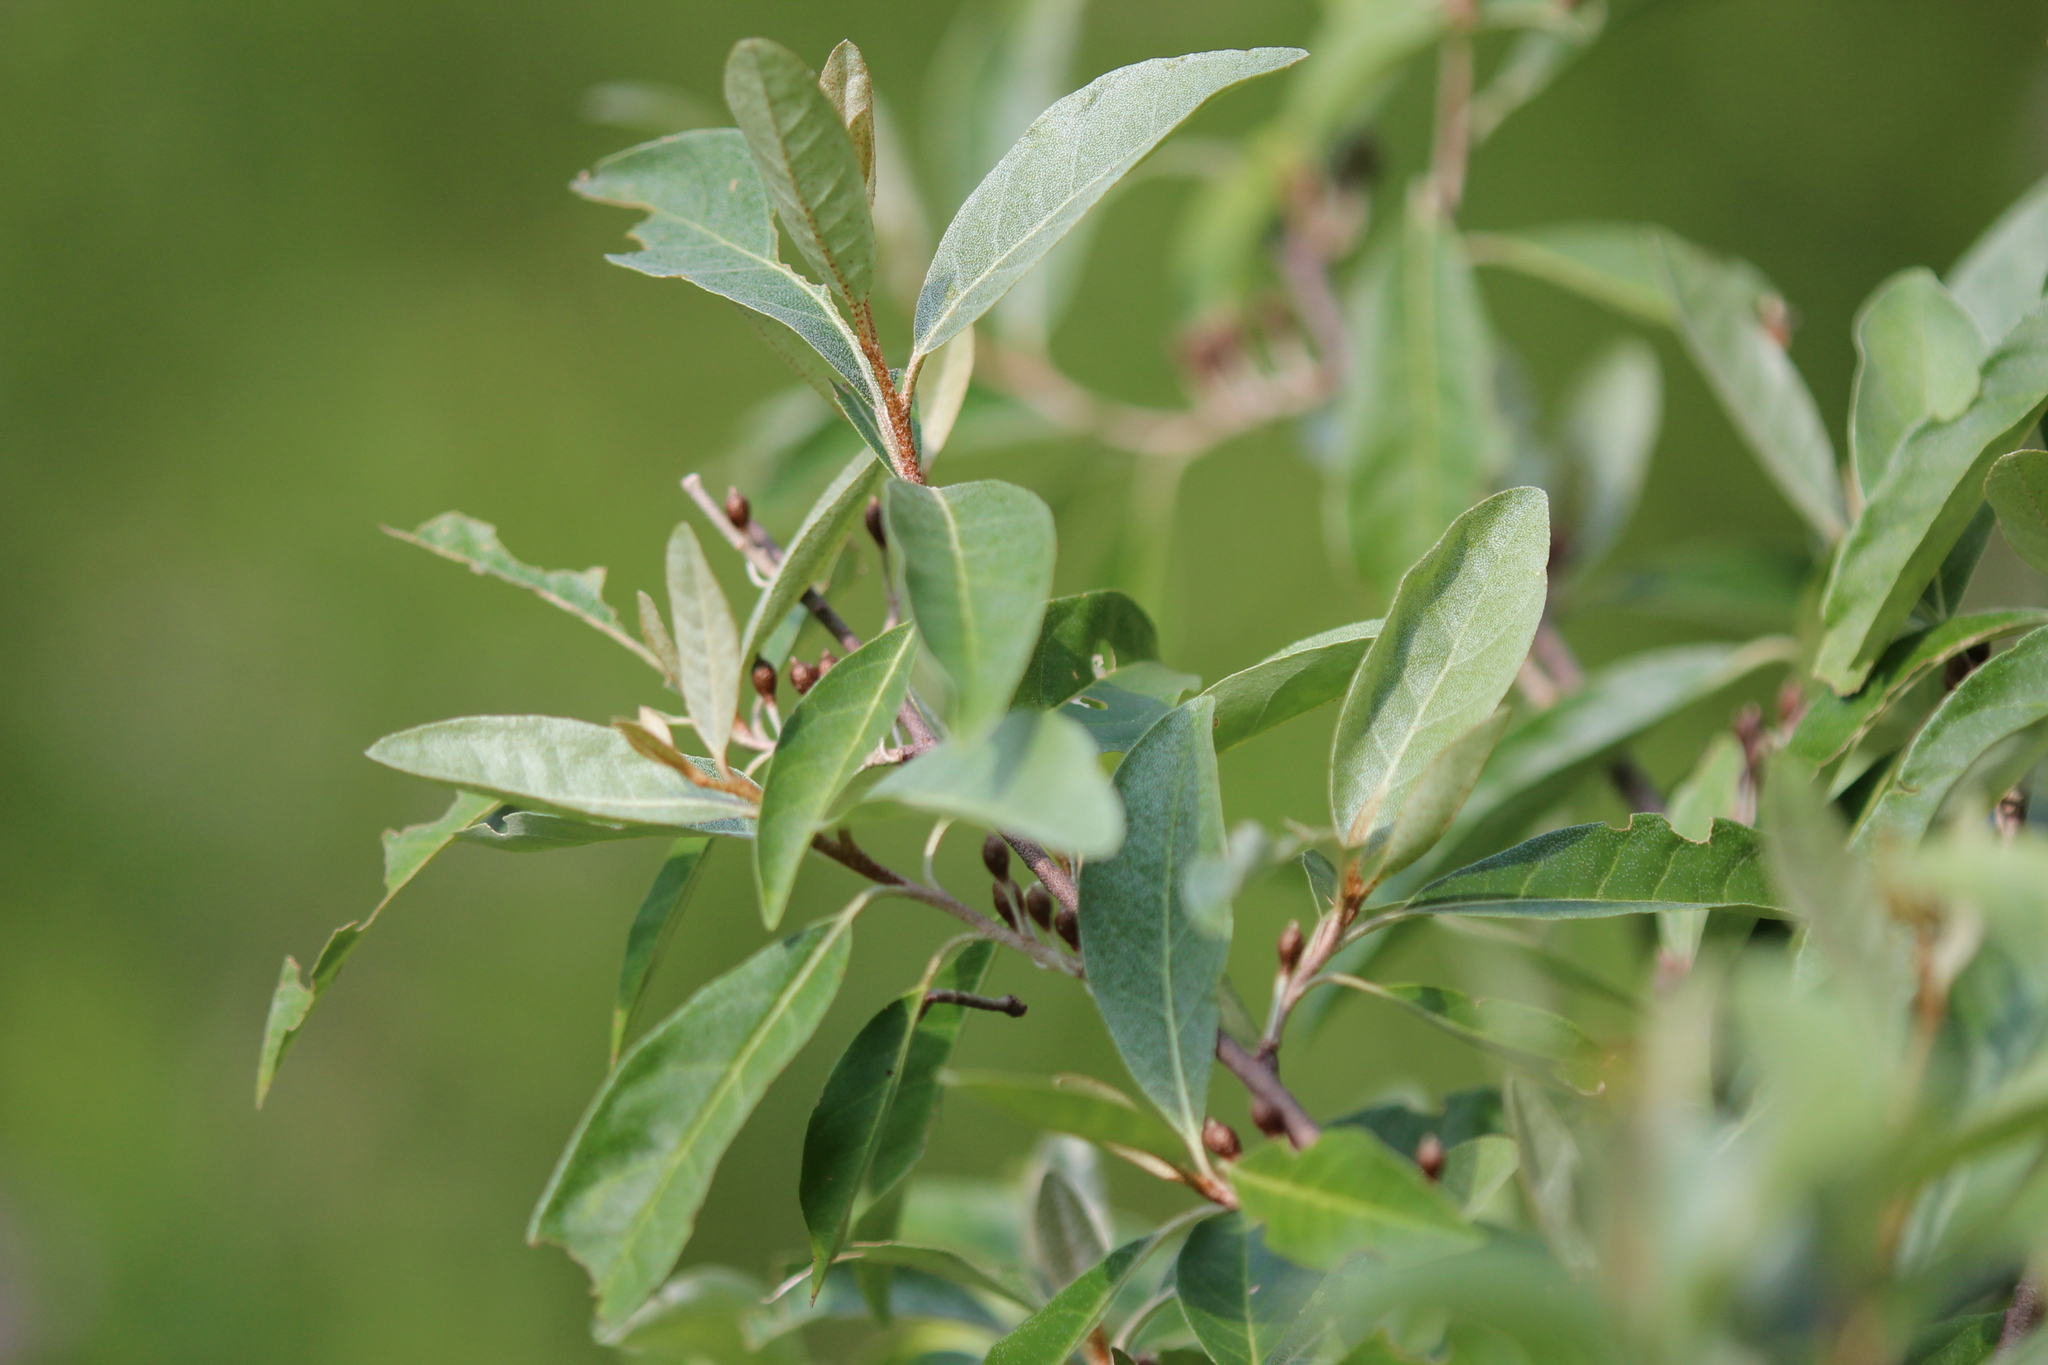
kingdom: Plantae
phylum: Tracheophyta
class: Magnoliopsida
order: Rosales
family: Elaeagnaceae
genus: Elaeagnus
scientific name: Elaeagnus umbellata
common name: Autumn olive
